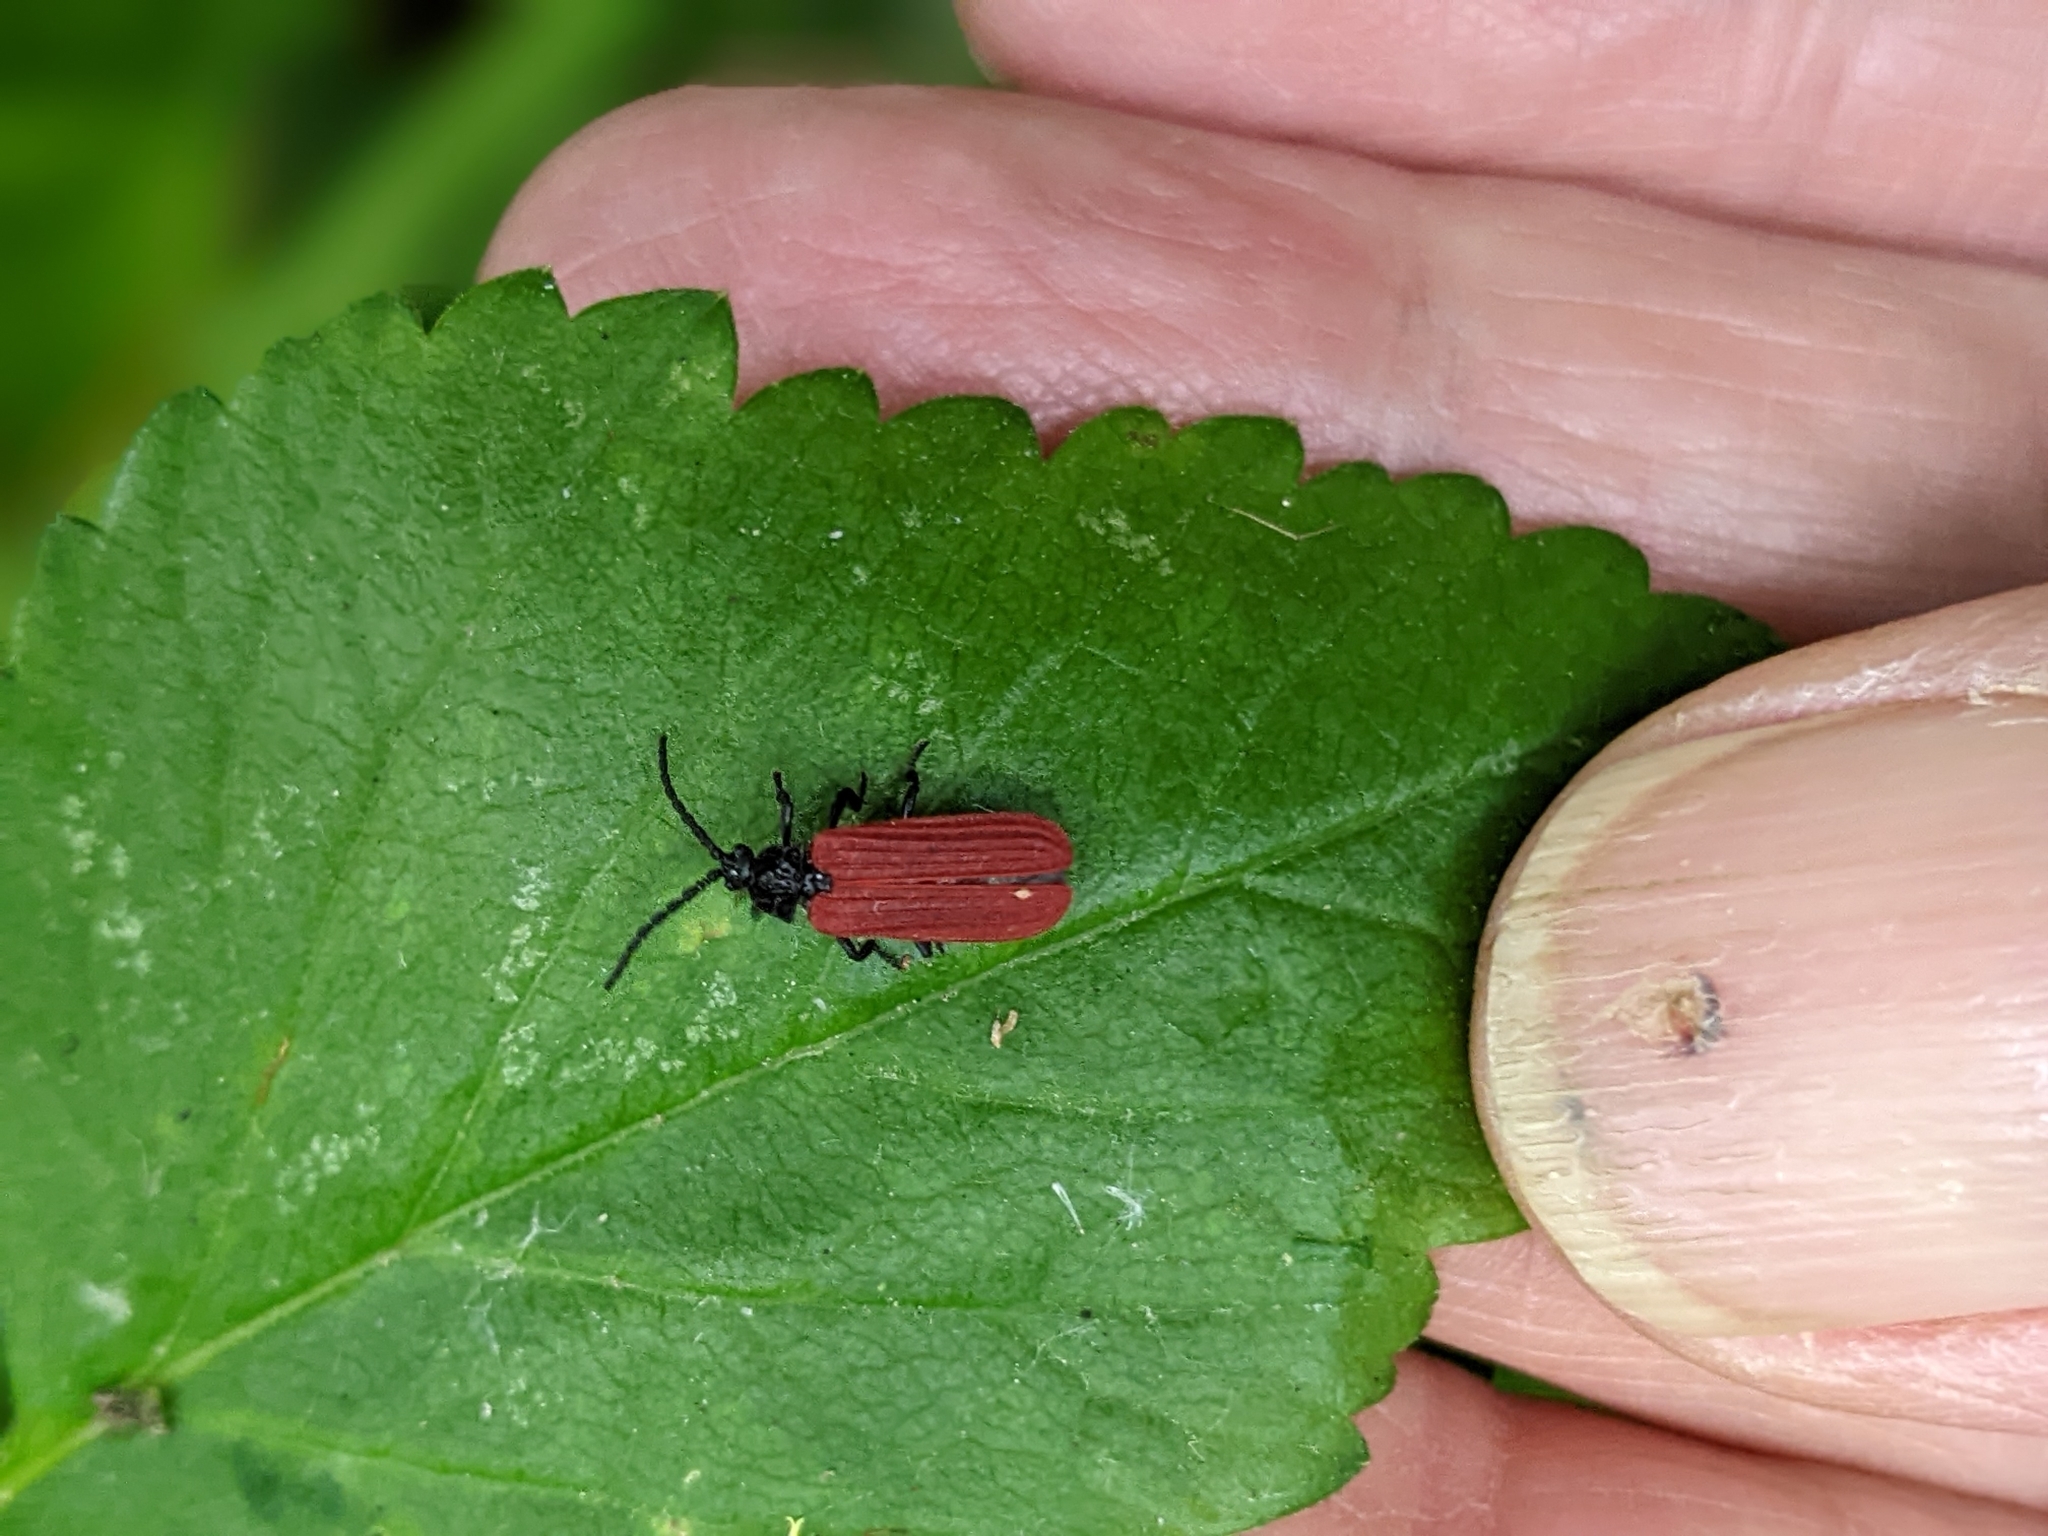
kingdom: Animalia
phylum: Arthropoda
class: Insecta
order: Coleoptera
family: Lycidae
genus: Pyropterus
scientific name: Pyropterus nigroruber
